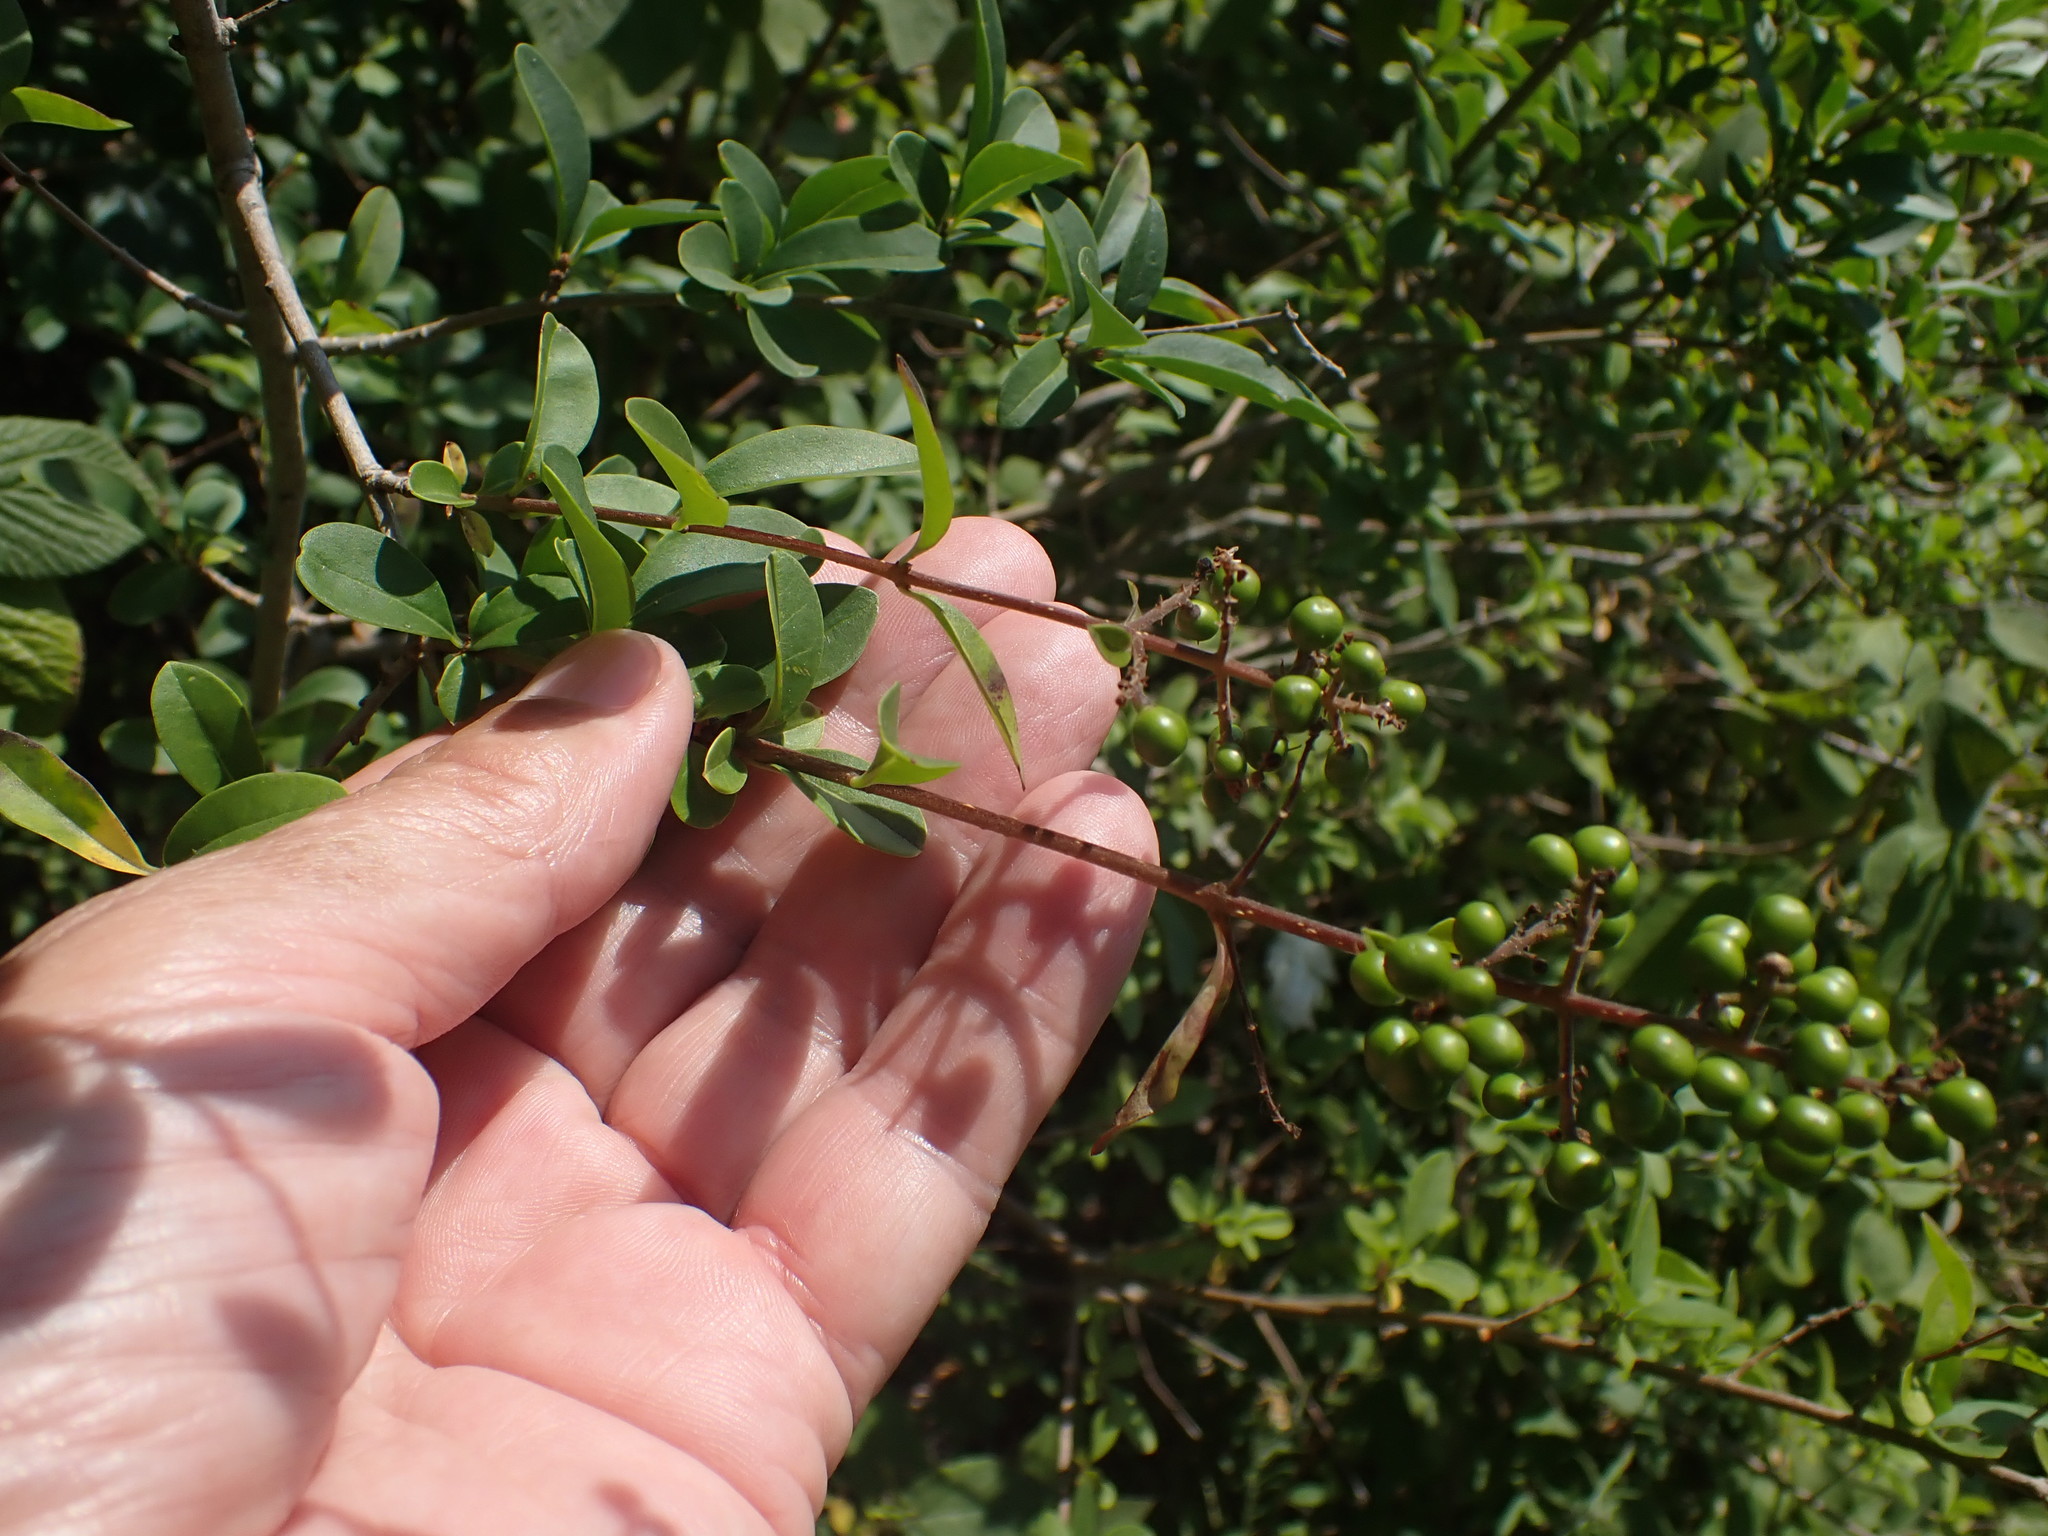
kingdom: Plantae
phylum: Tracheophyta
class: Magnoliopsida
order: Lamiales
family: Oleaceae
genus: Ligustrum
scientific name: Ligustrum vulgare
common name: Wild privet
